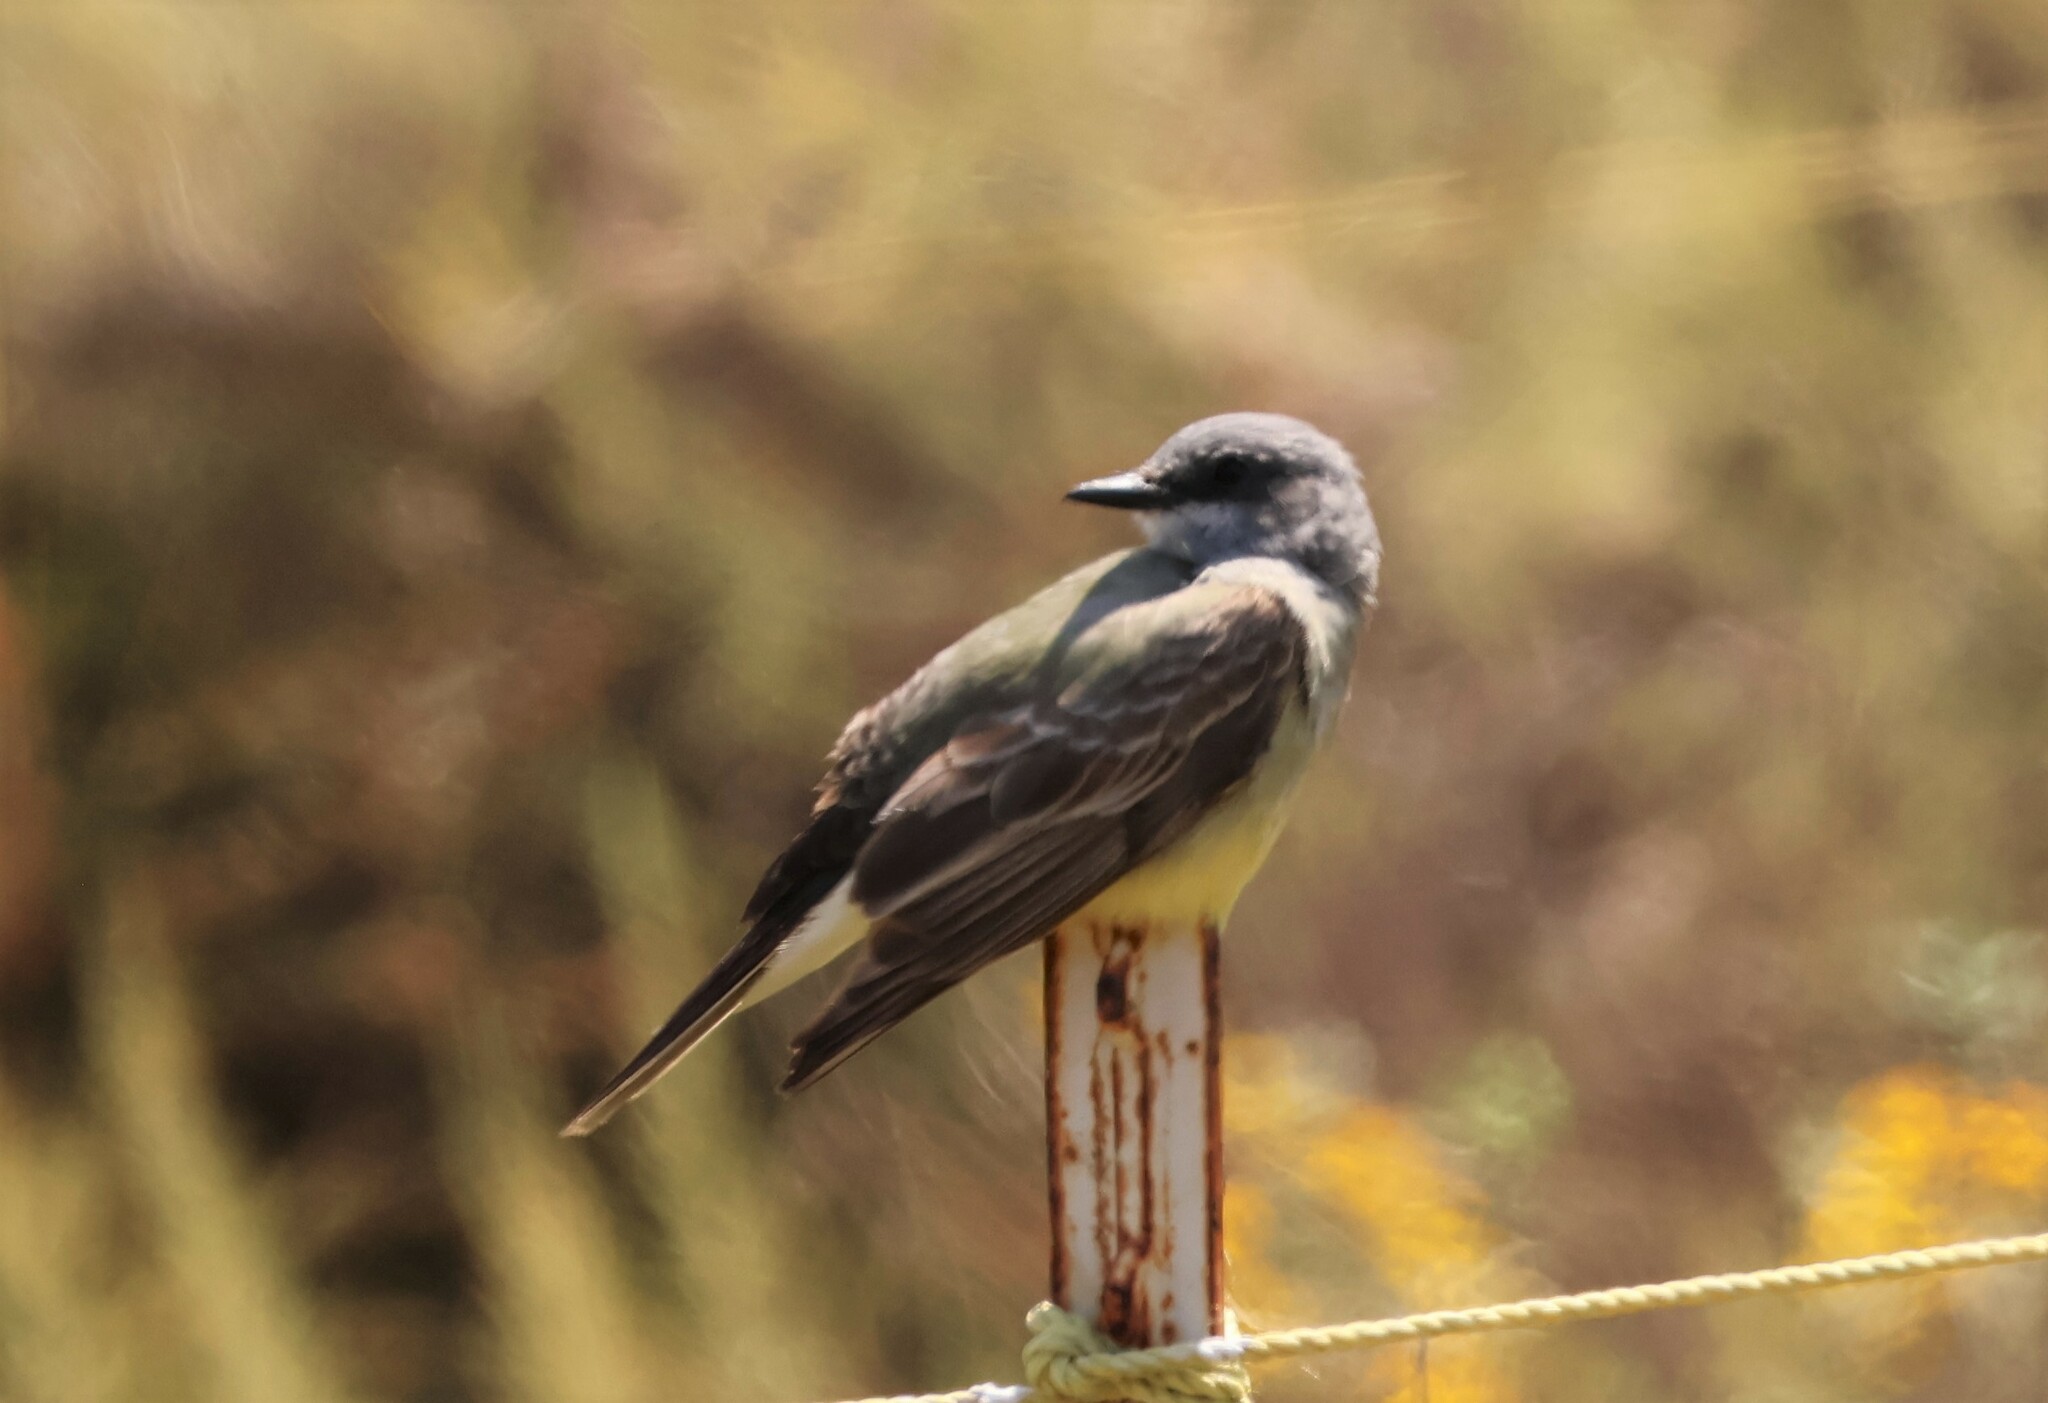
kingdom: Animalia
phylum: Chordata
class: Aves
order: Passeriformes
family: Tyrannidae
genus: Tyrannus
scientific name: Tyrannus vociferans
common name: Cassin's kingbird
